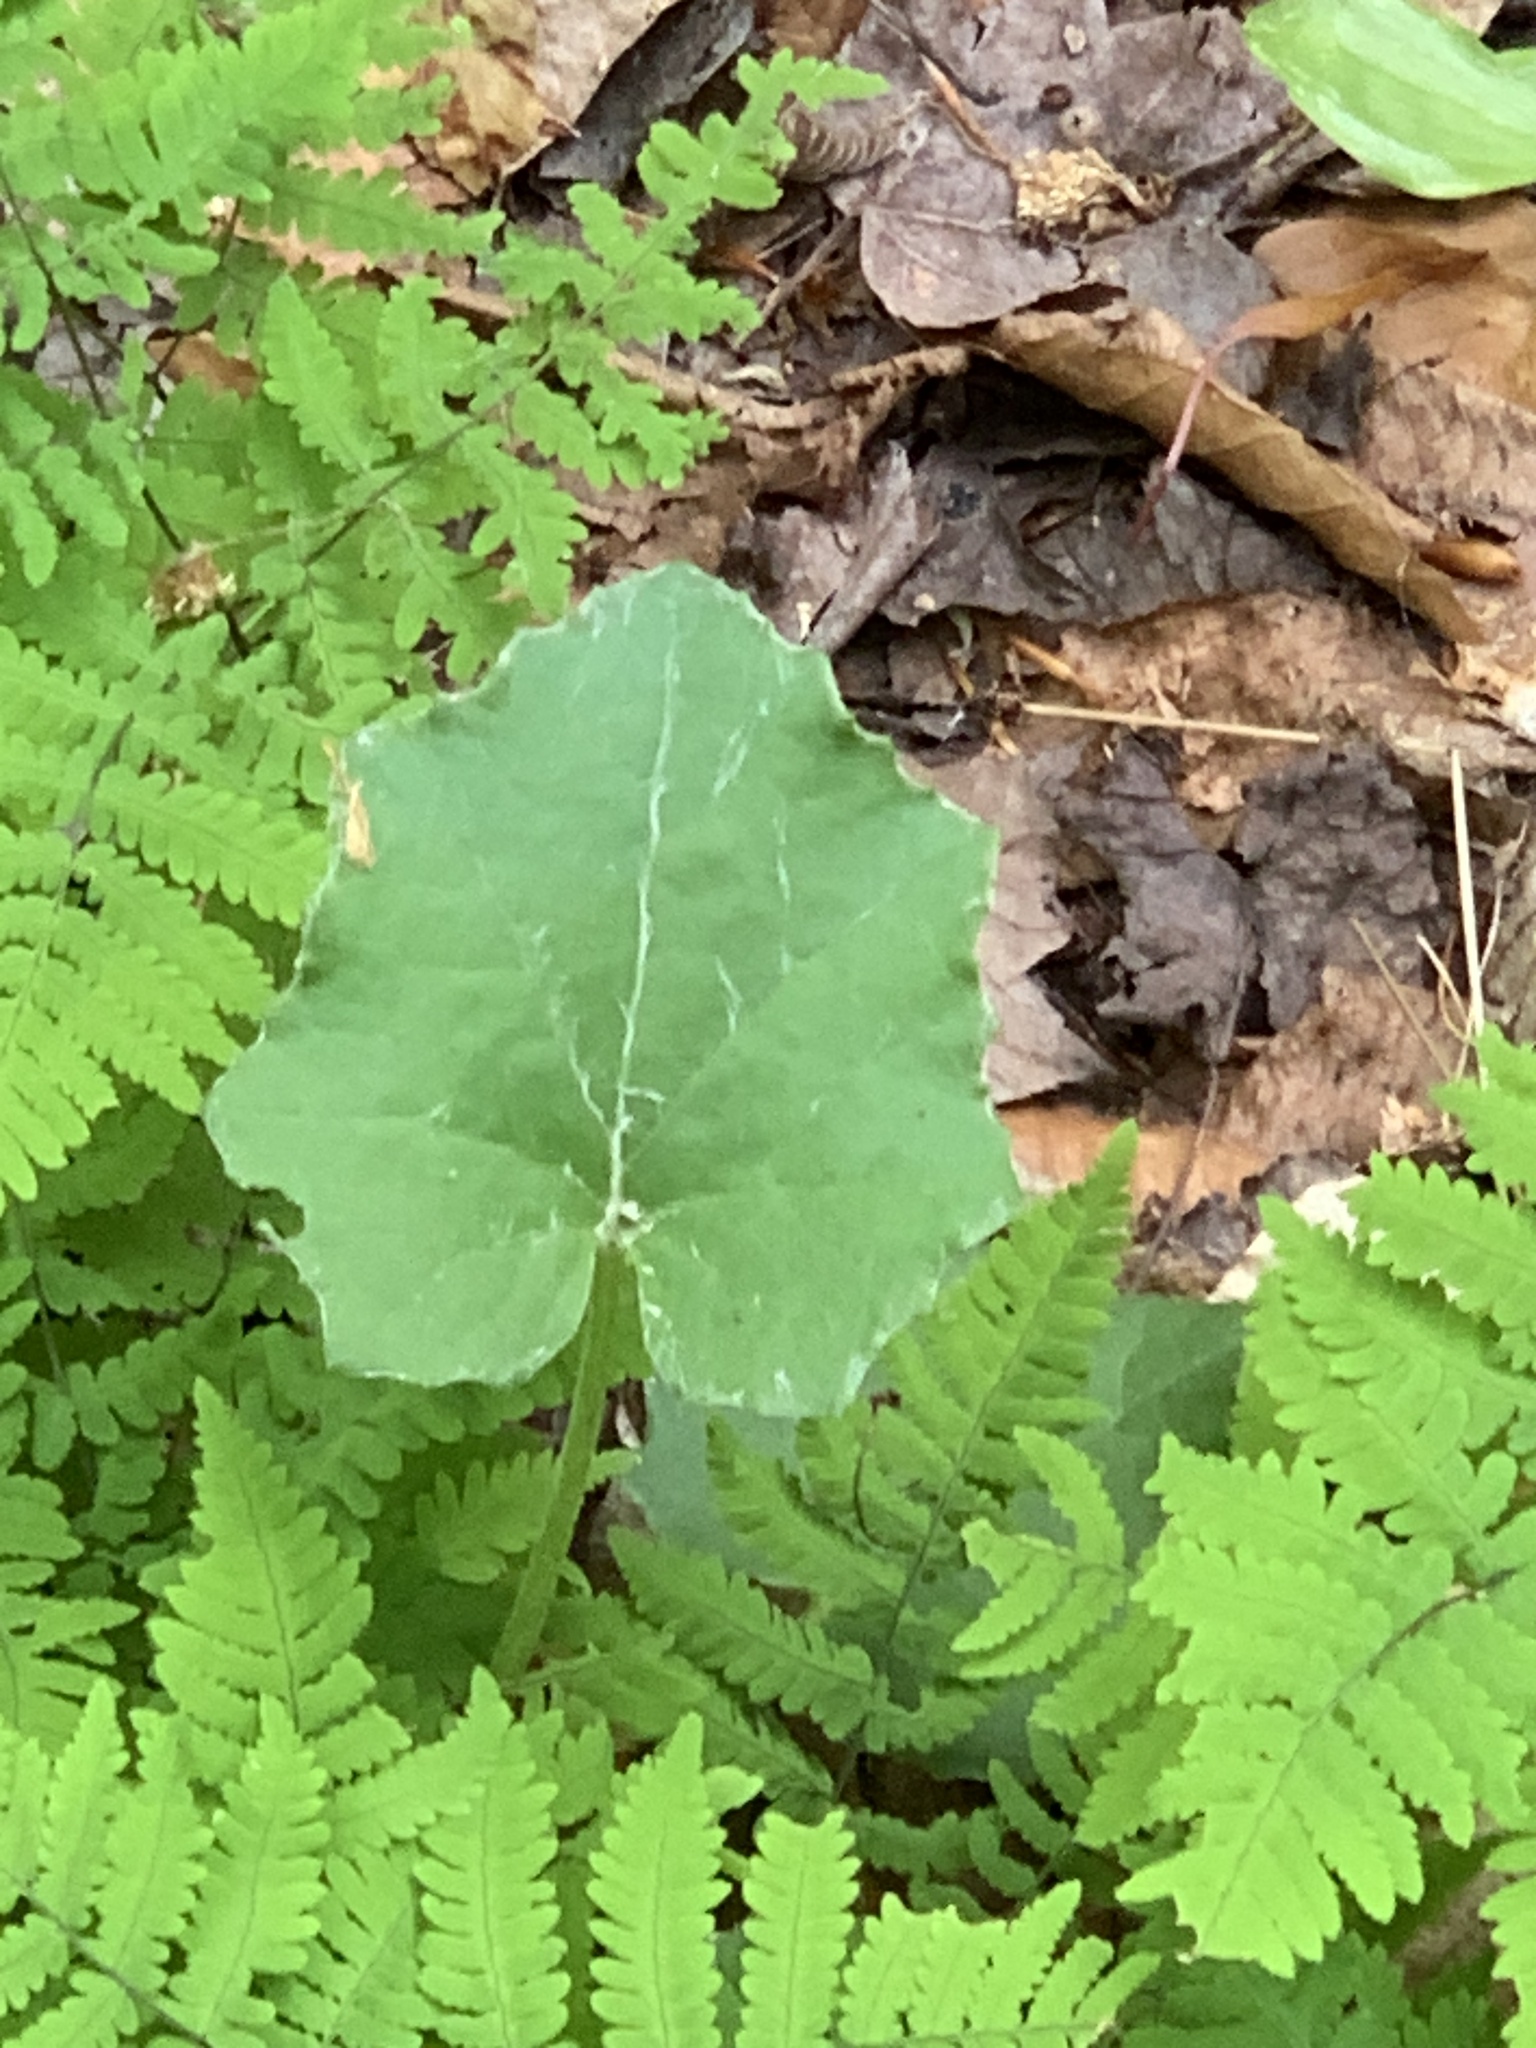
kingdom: Plantae
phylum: Tracheophyta
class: Magnoliopsida
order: Asterales
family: Asteraceae
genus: Tussilago
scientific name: Tussilago farfara
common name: Coltsfoot
